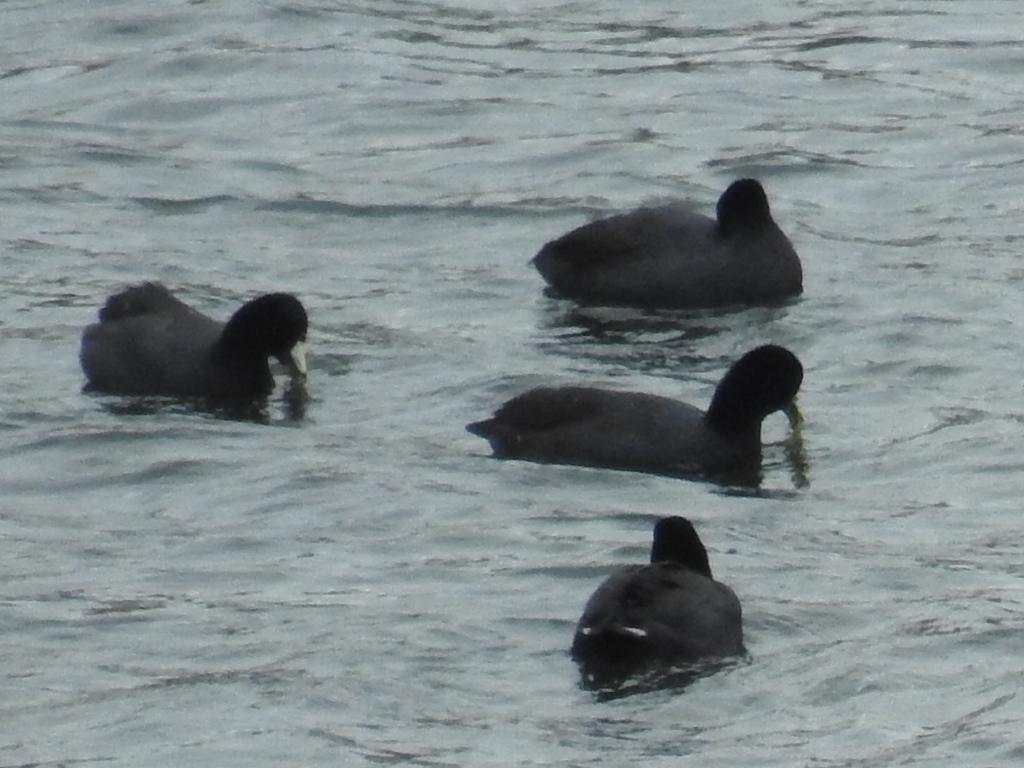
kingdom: Animalia
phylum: Chordata
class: Aves
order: Gruiformes
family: Rallidae
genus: Fulica
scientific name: Fulica americana
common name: American coot
